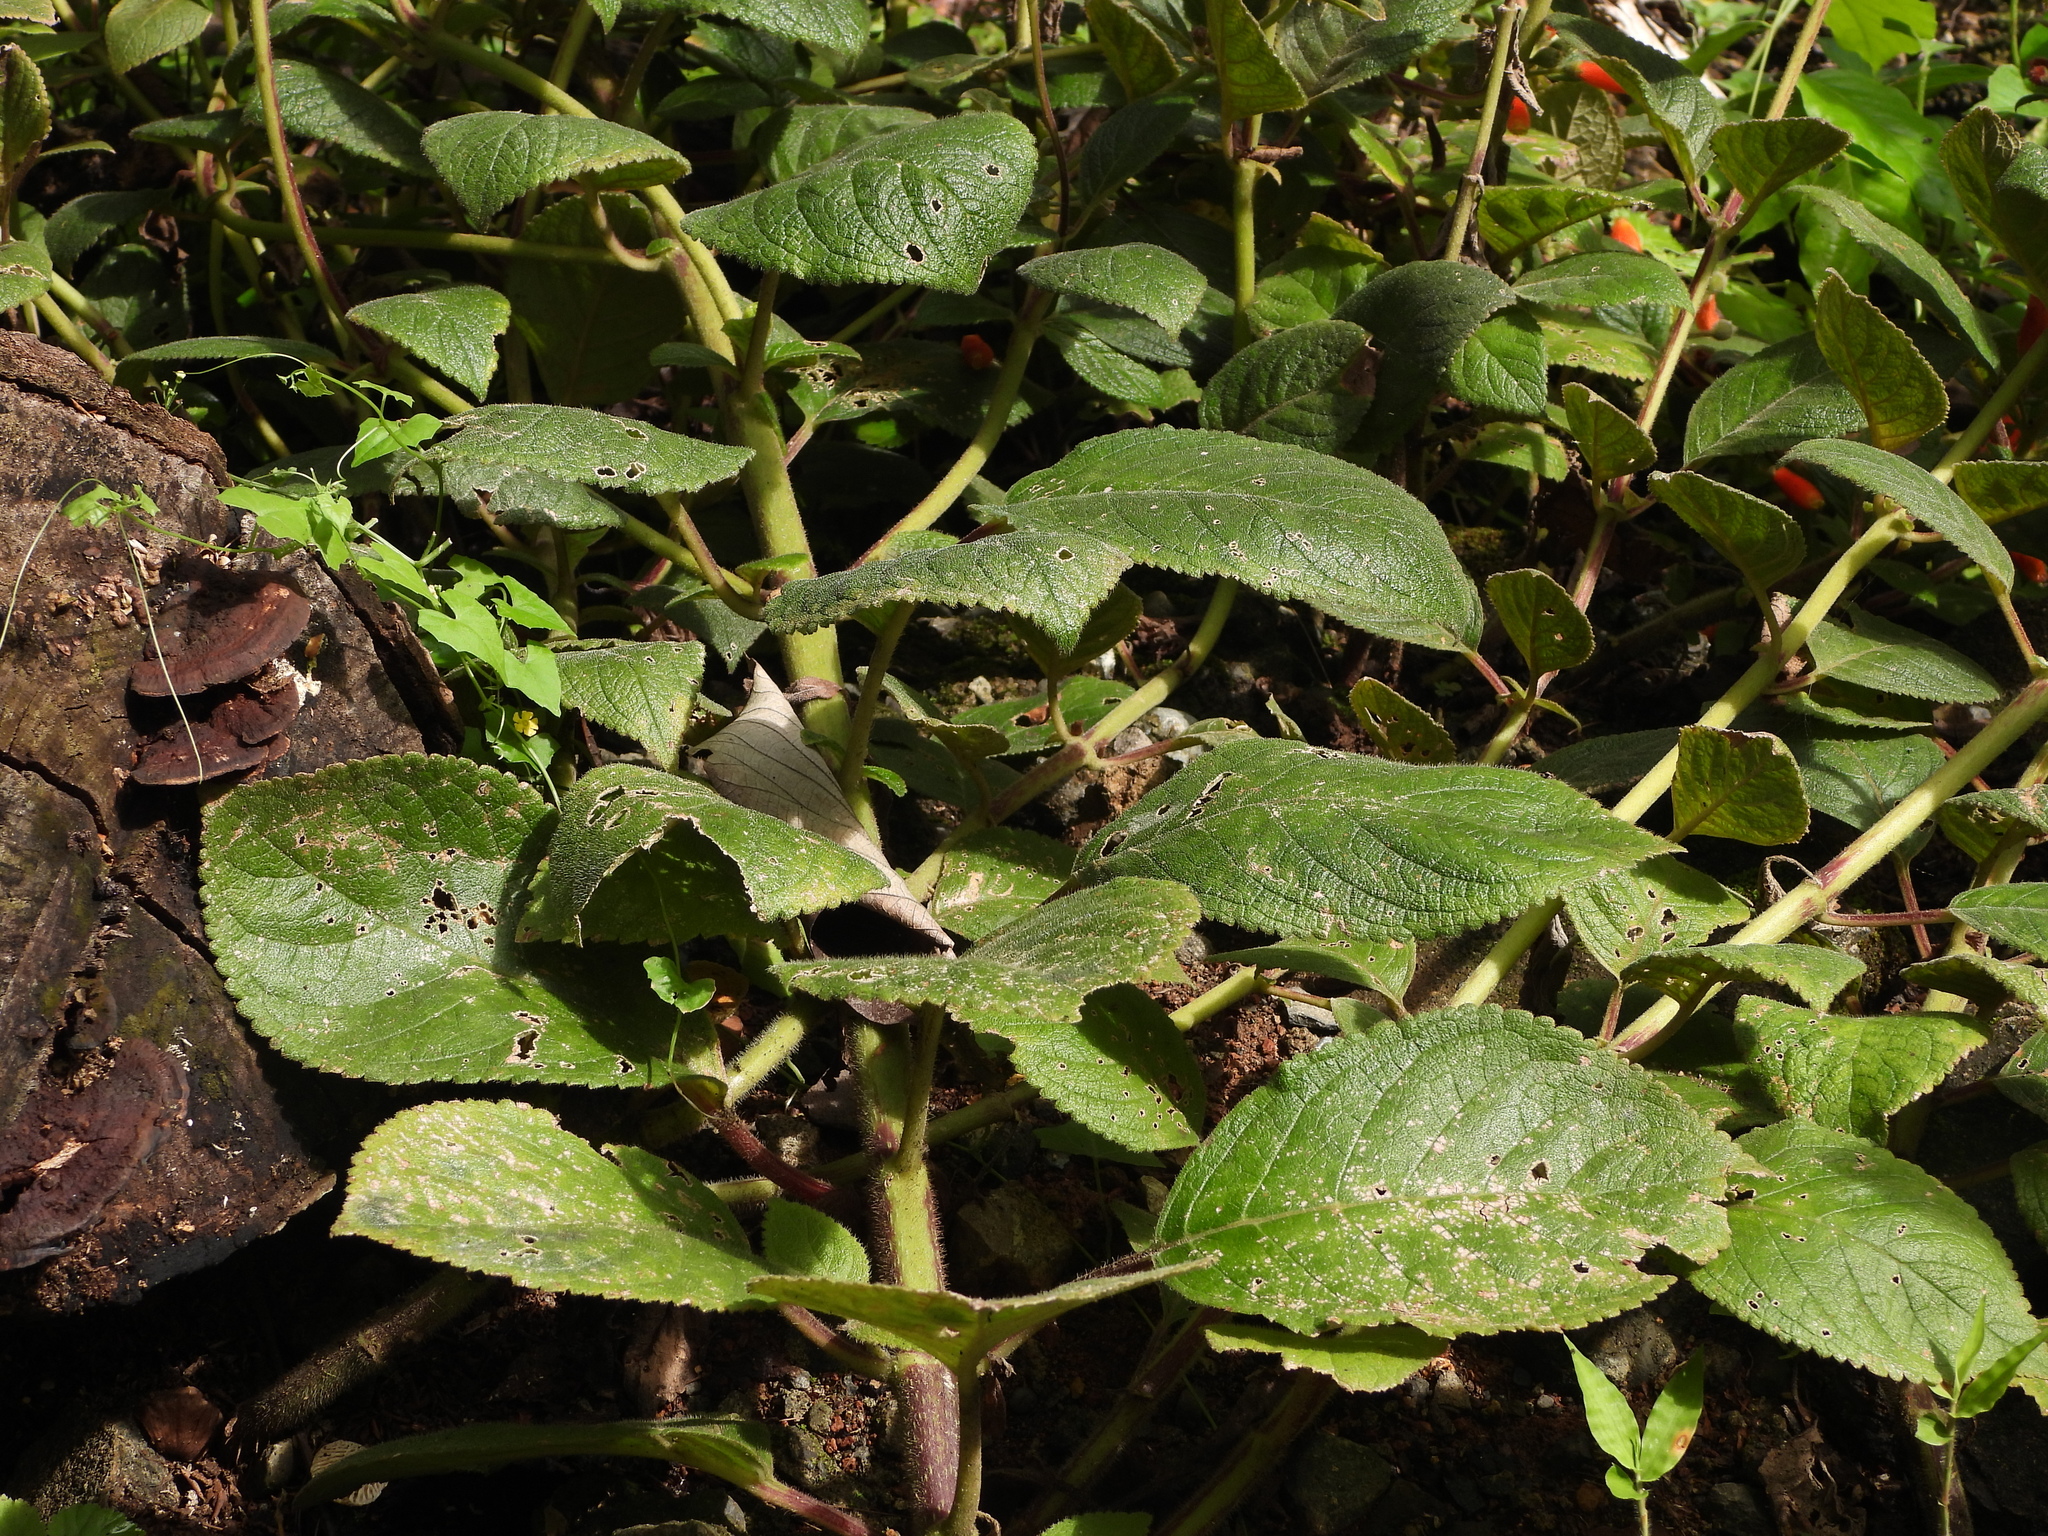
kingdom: Plantae
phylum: Tracheophyta
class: Magnoliopsida
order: Lamiales
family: Gesneriaceae
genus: Kohleria
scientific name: Kohleria tubiflora
